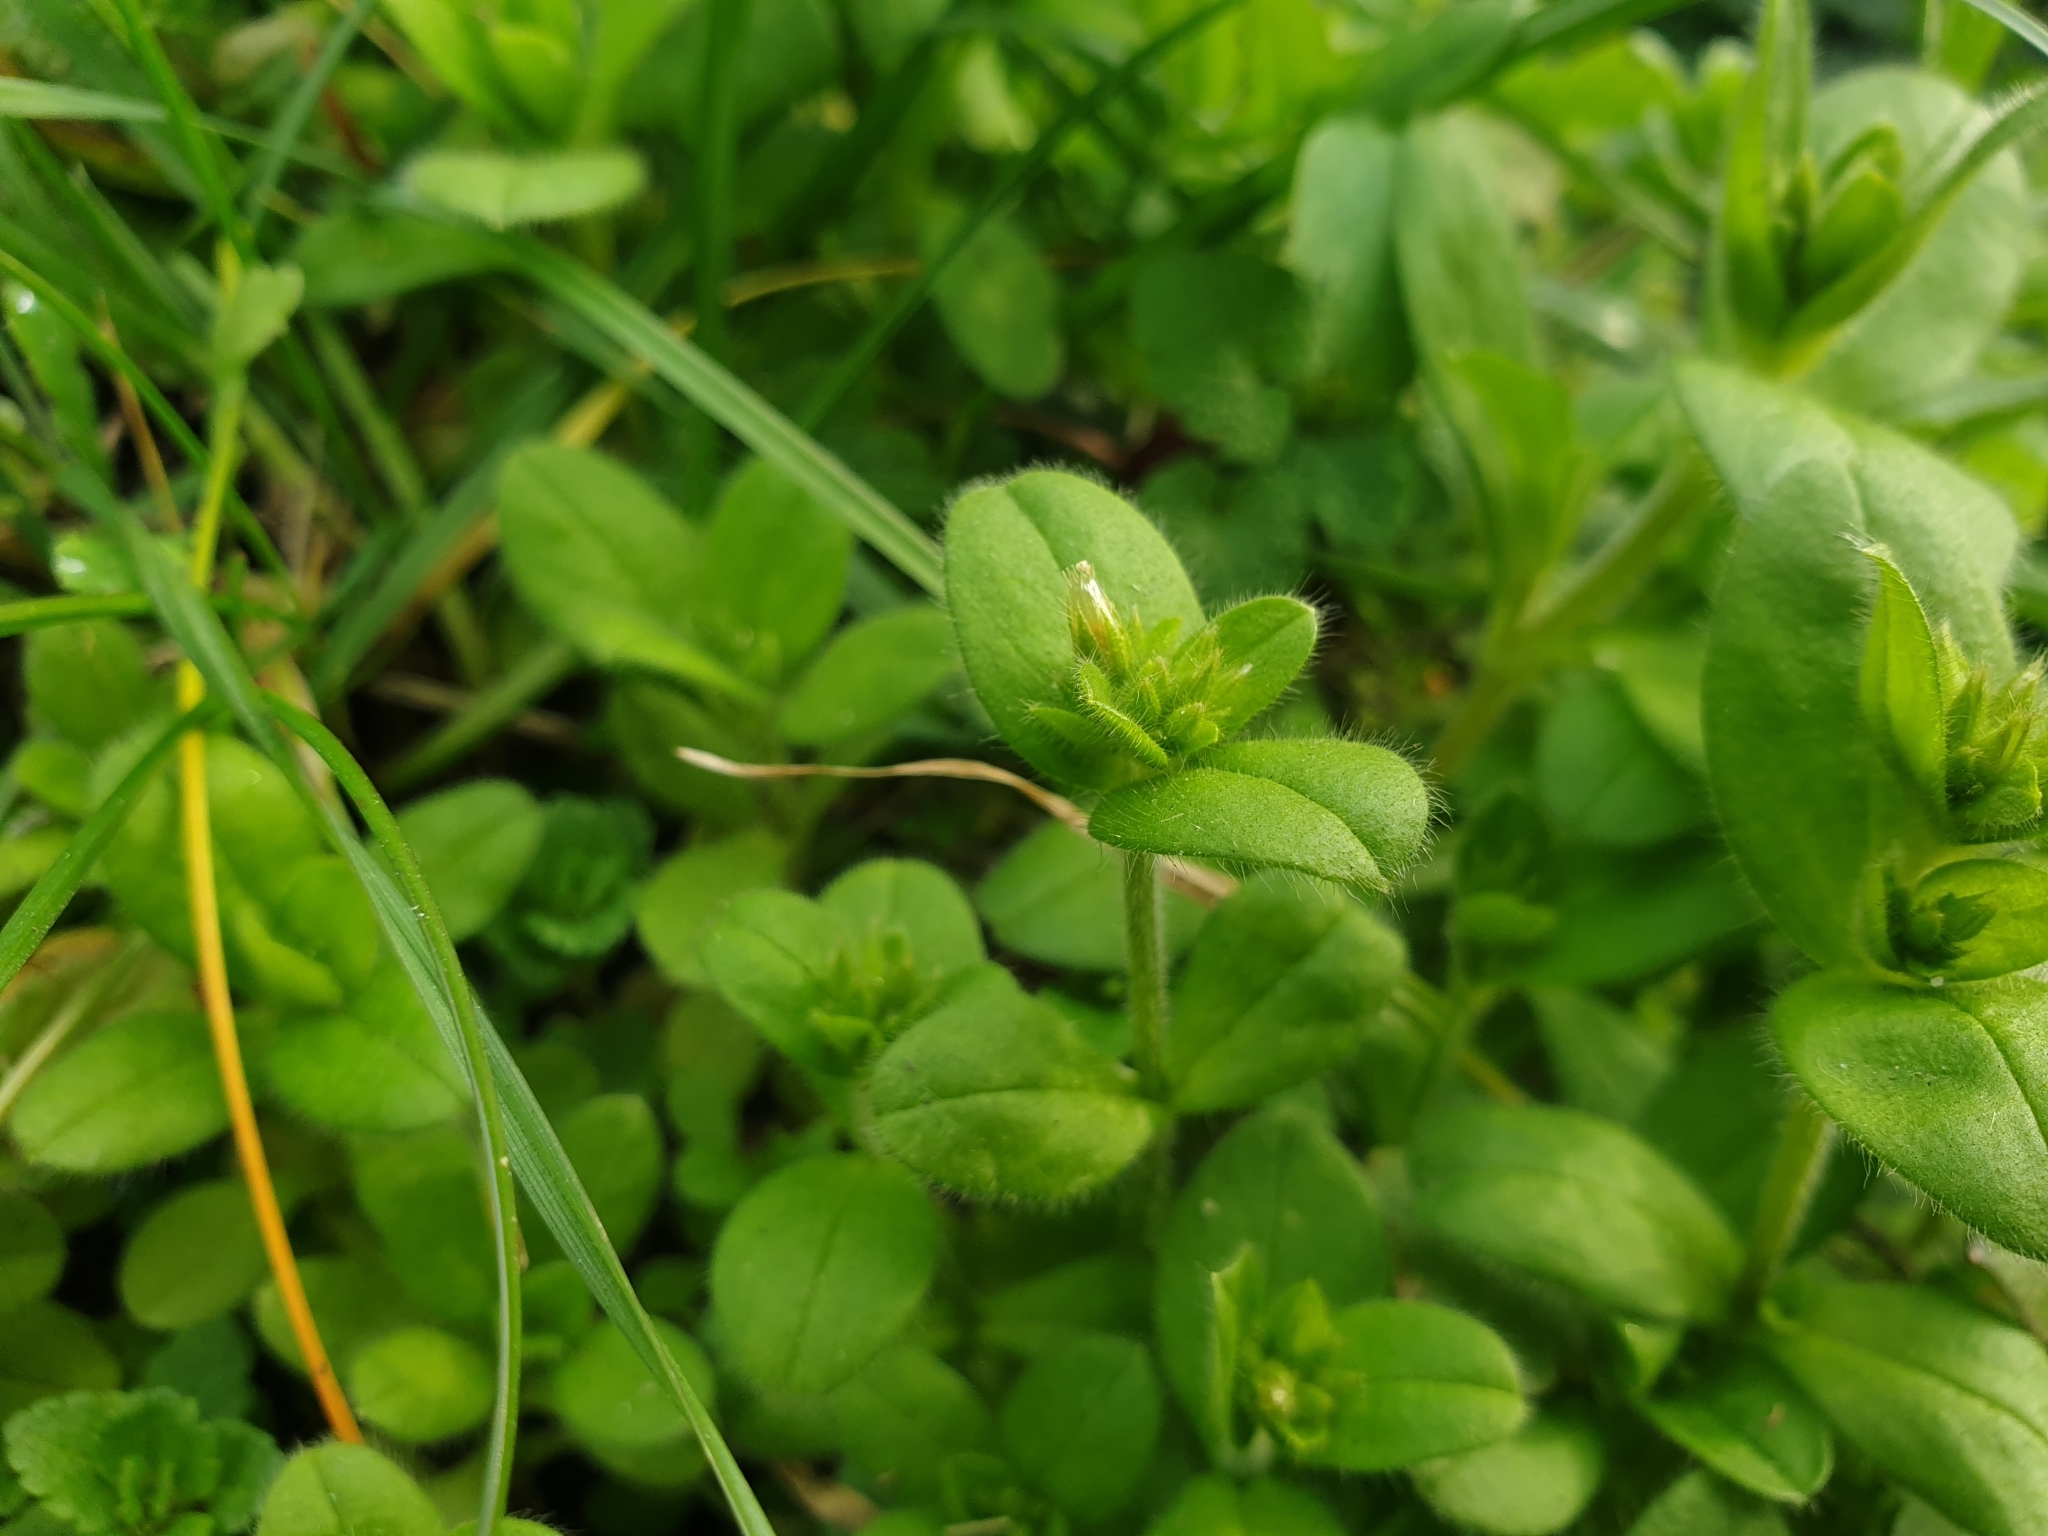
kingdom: Plantae
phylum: Tracheophyta
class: Magnoliopsida
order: Caryophyllales
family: Caryophyllaceae
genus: Cerastium
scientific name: Cerastium glomeratum
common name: Sticky chickweed
